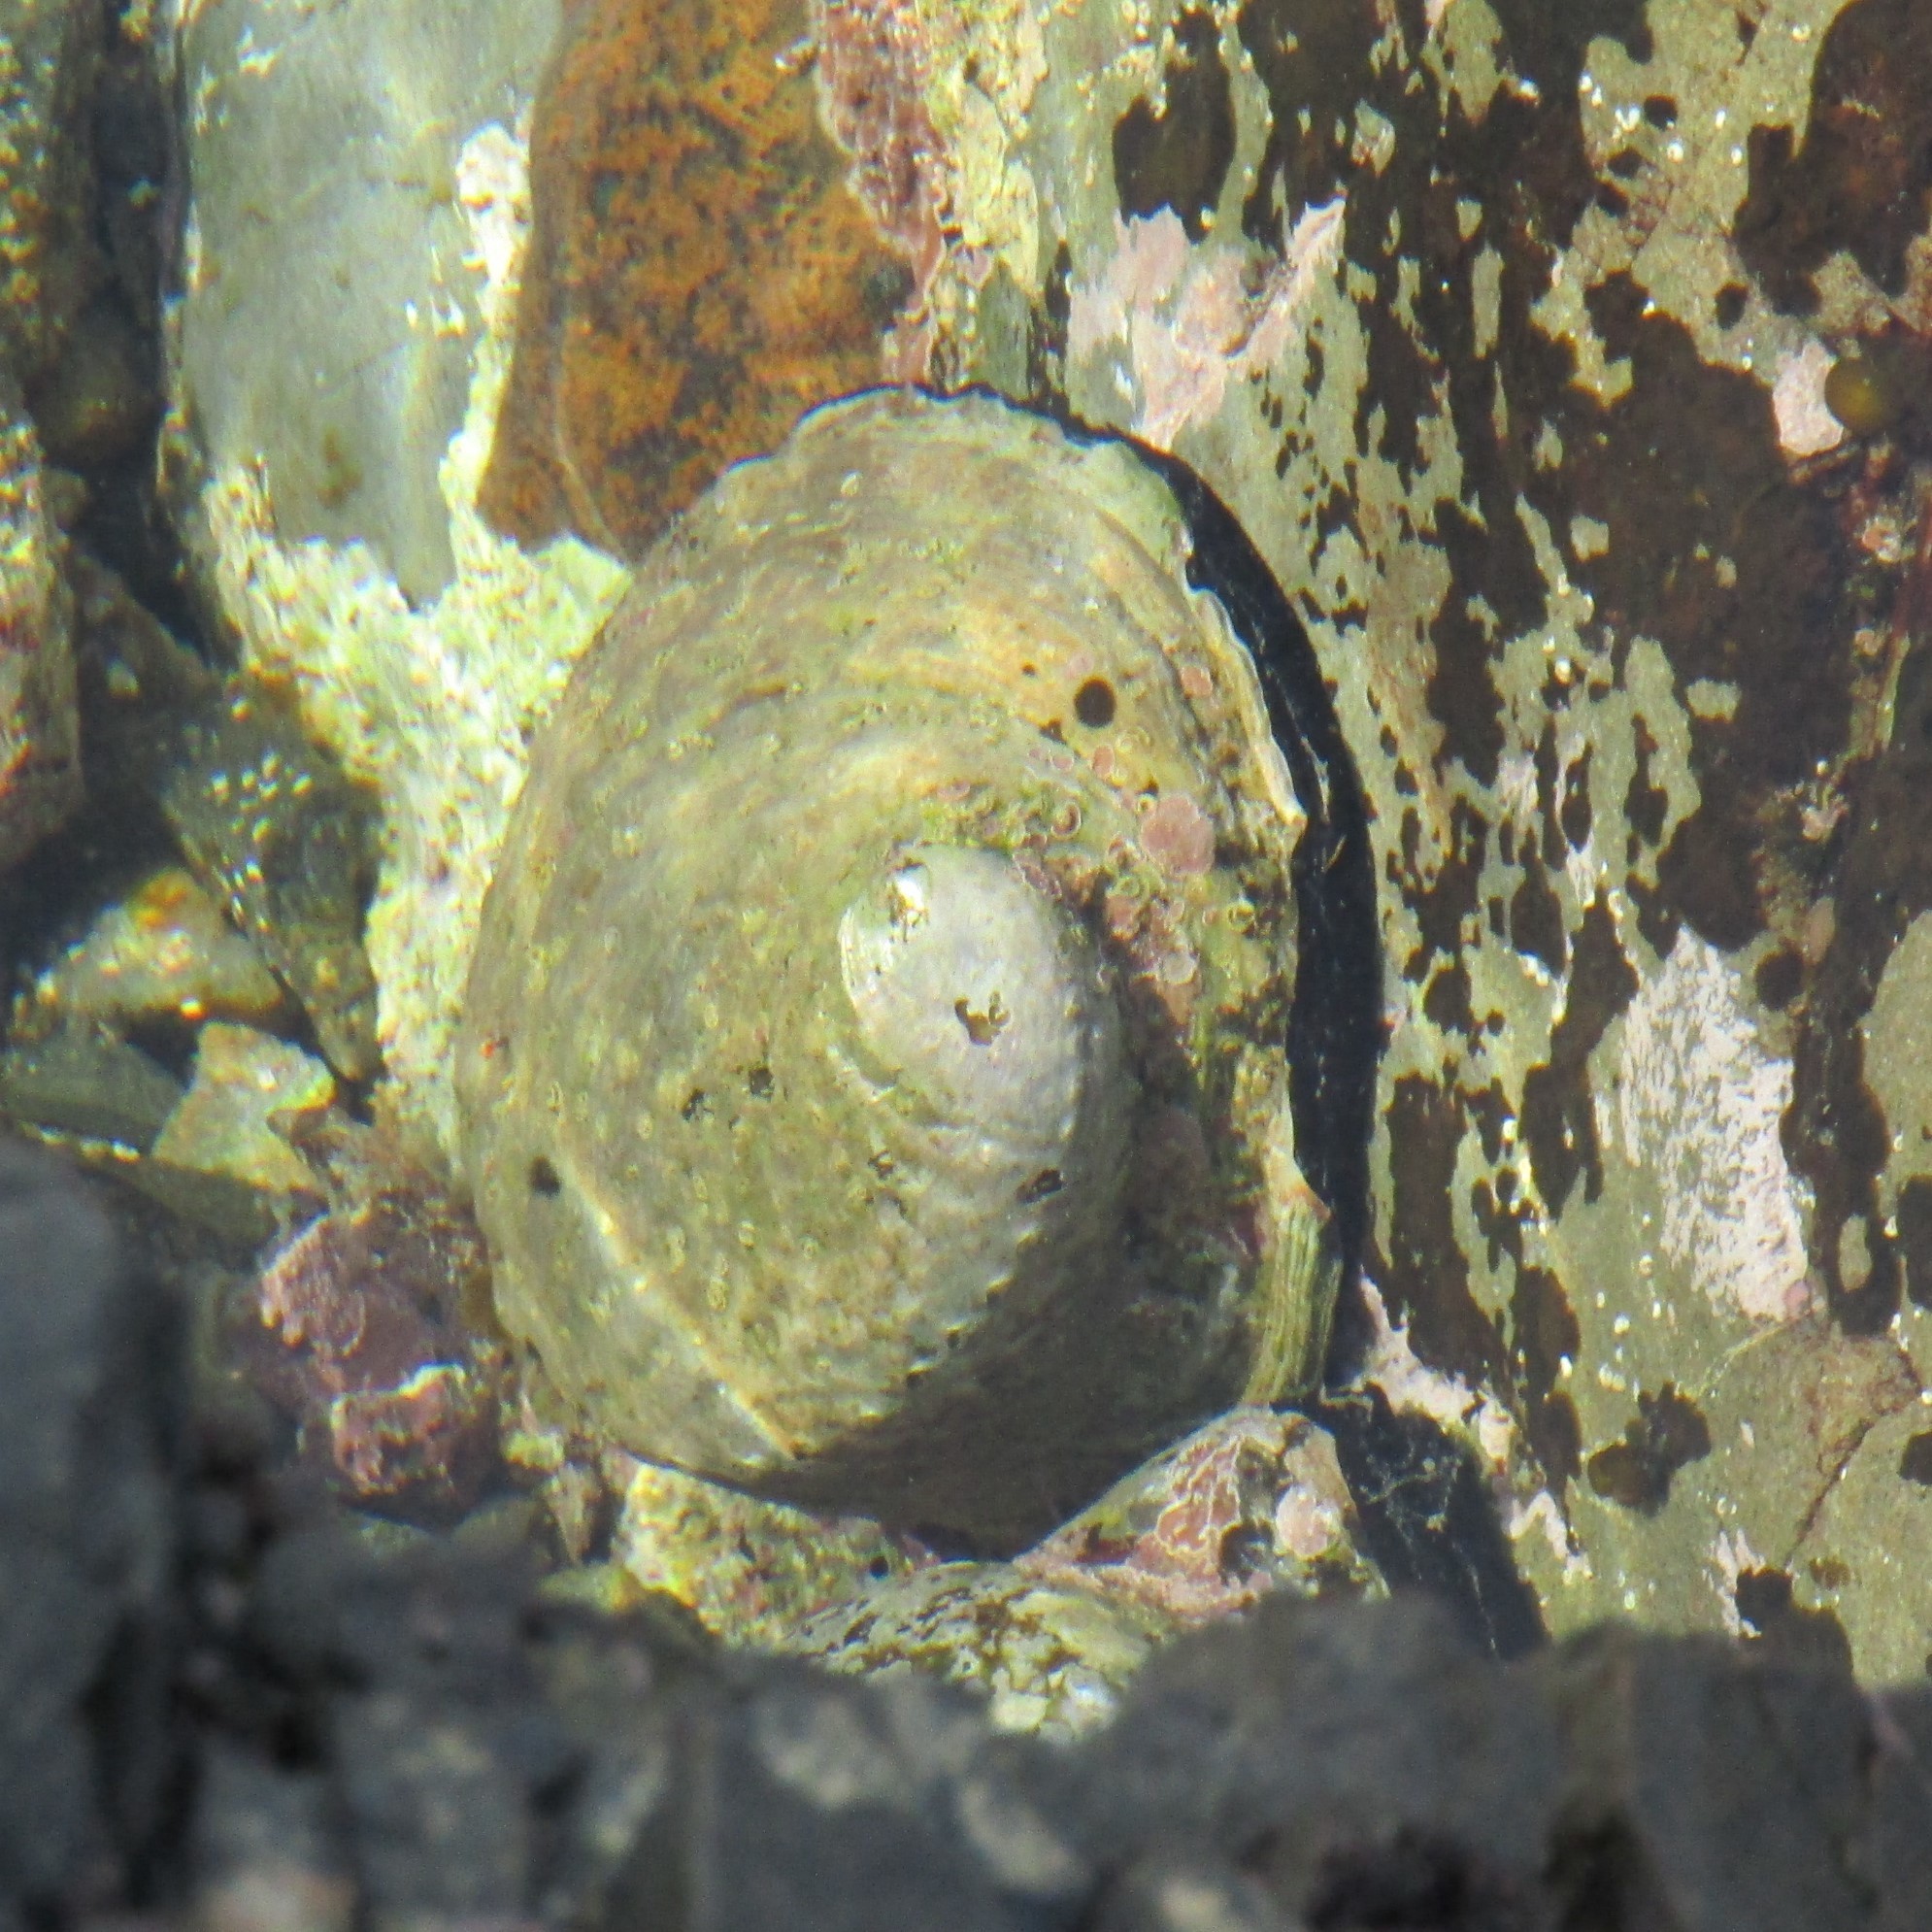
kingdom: Animalia
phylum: Mollusca
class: Gastropoda
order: Lepetellida
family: Haliotidae
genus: Haliotis
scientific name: Haliotis iris
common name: Abalone
